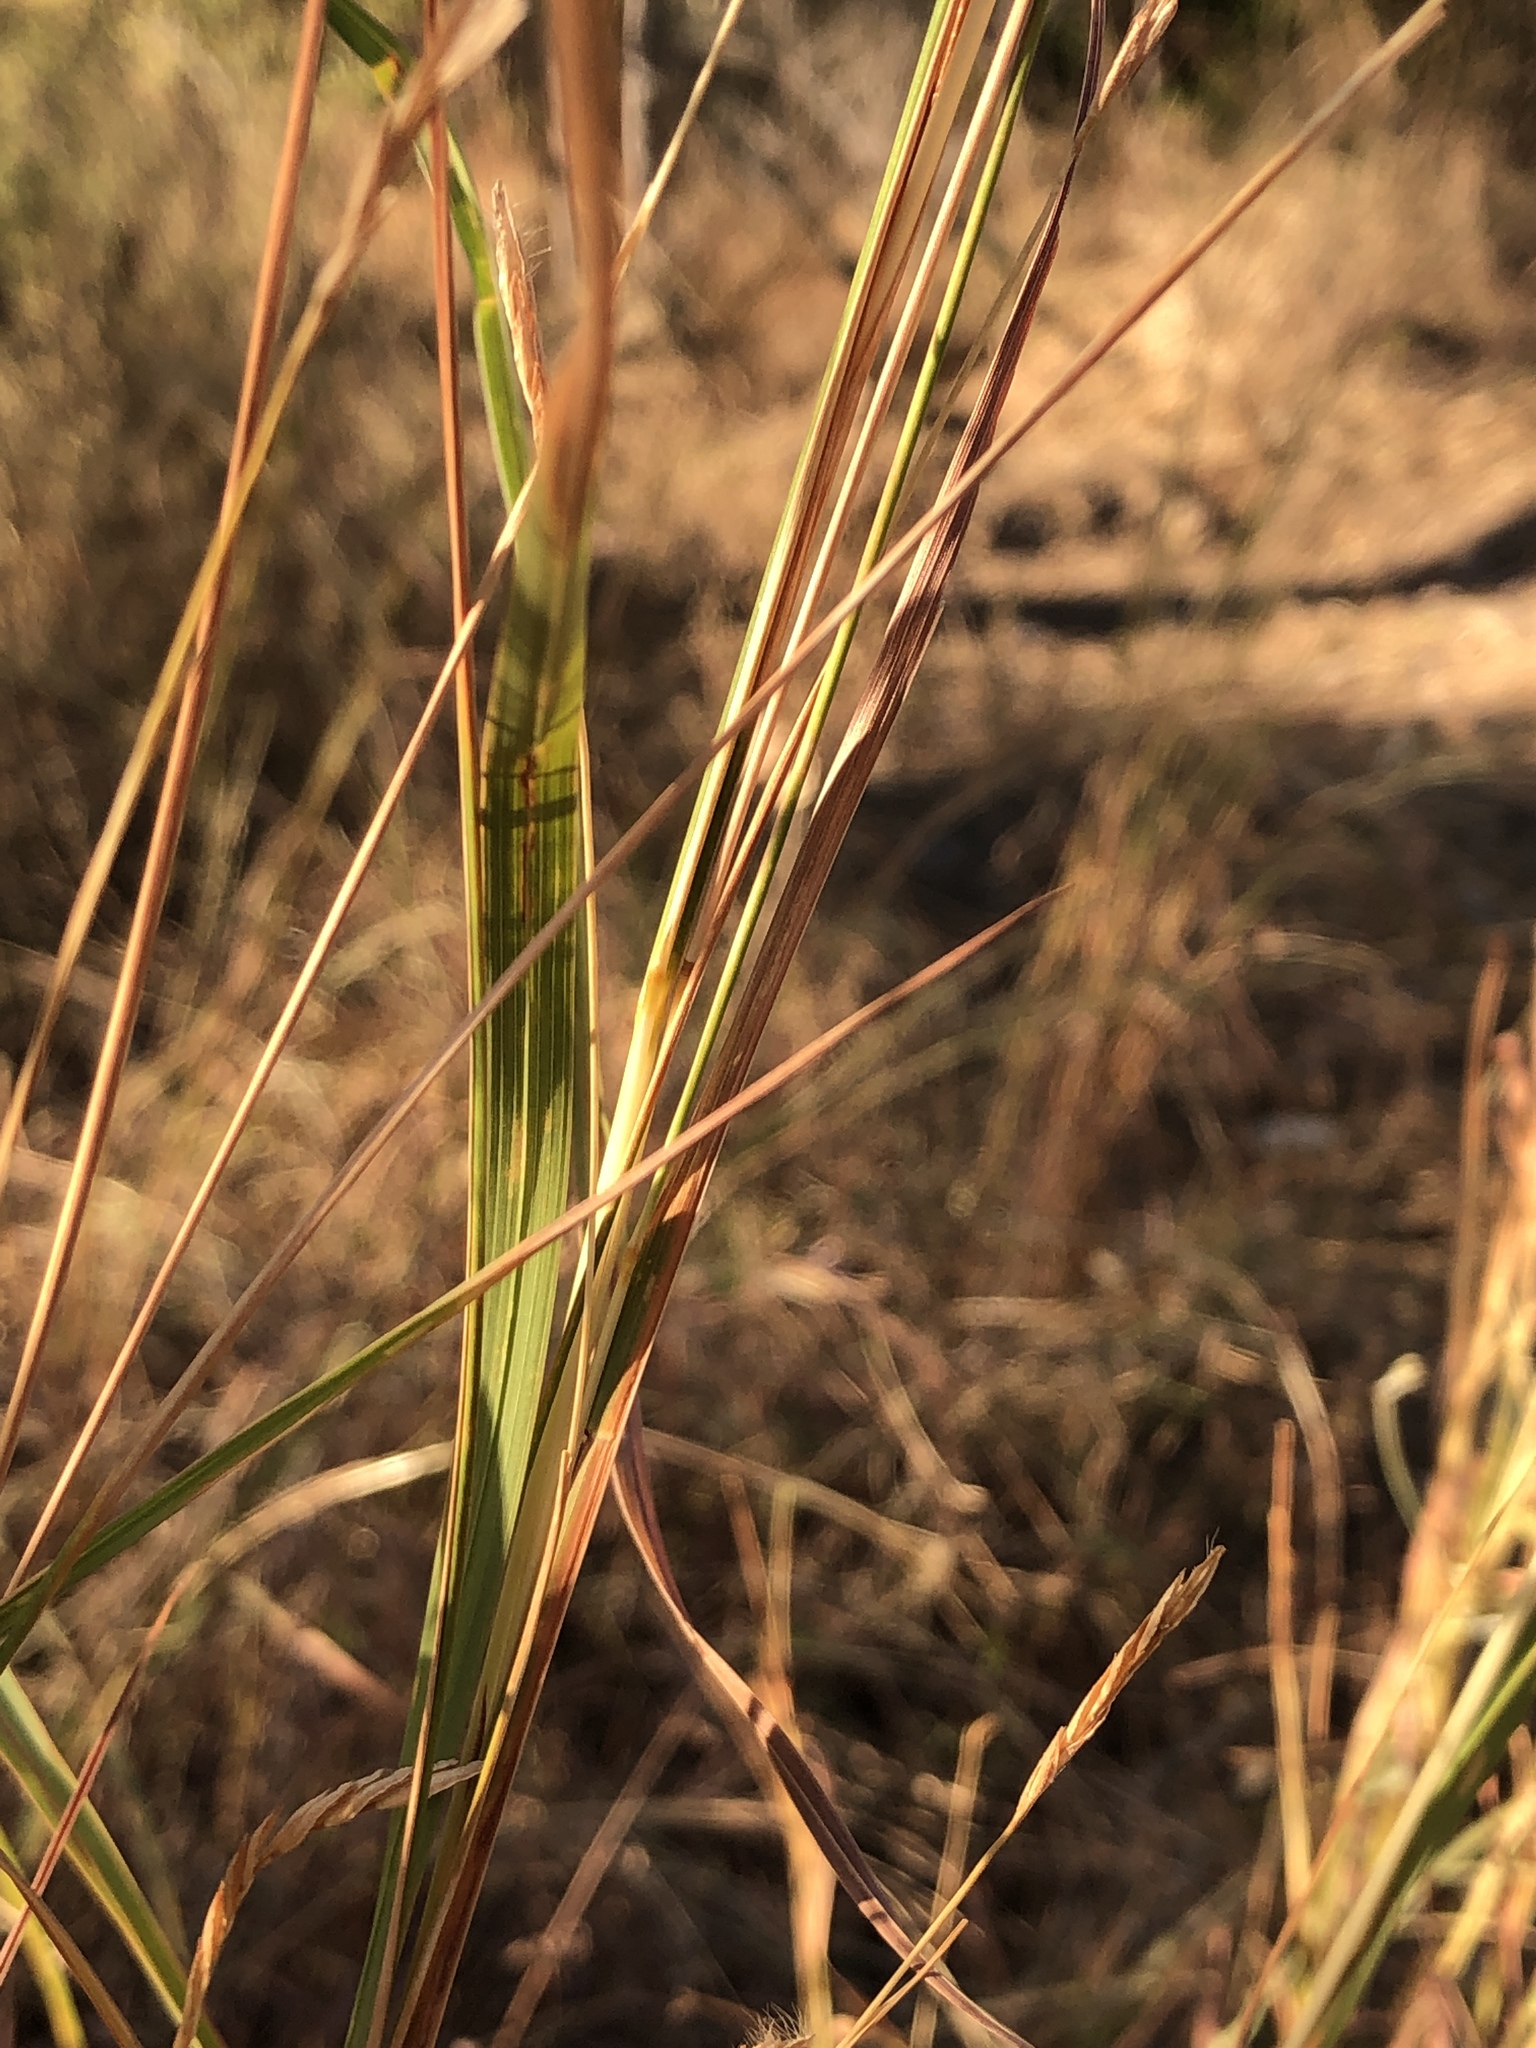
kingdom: Plantae
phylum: Tracheophyta
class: Liliopsida
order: Poales
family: Poaceae
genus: Heteropogon
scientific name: Heteropogon triticeus
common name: Sugar grass
